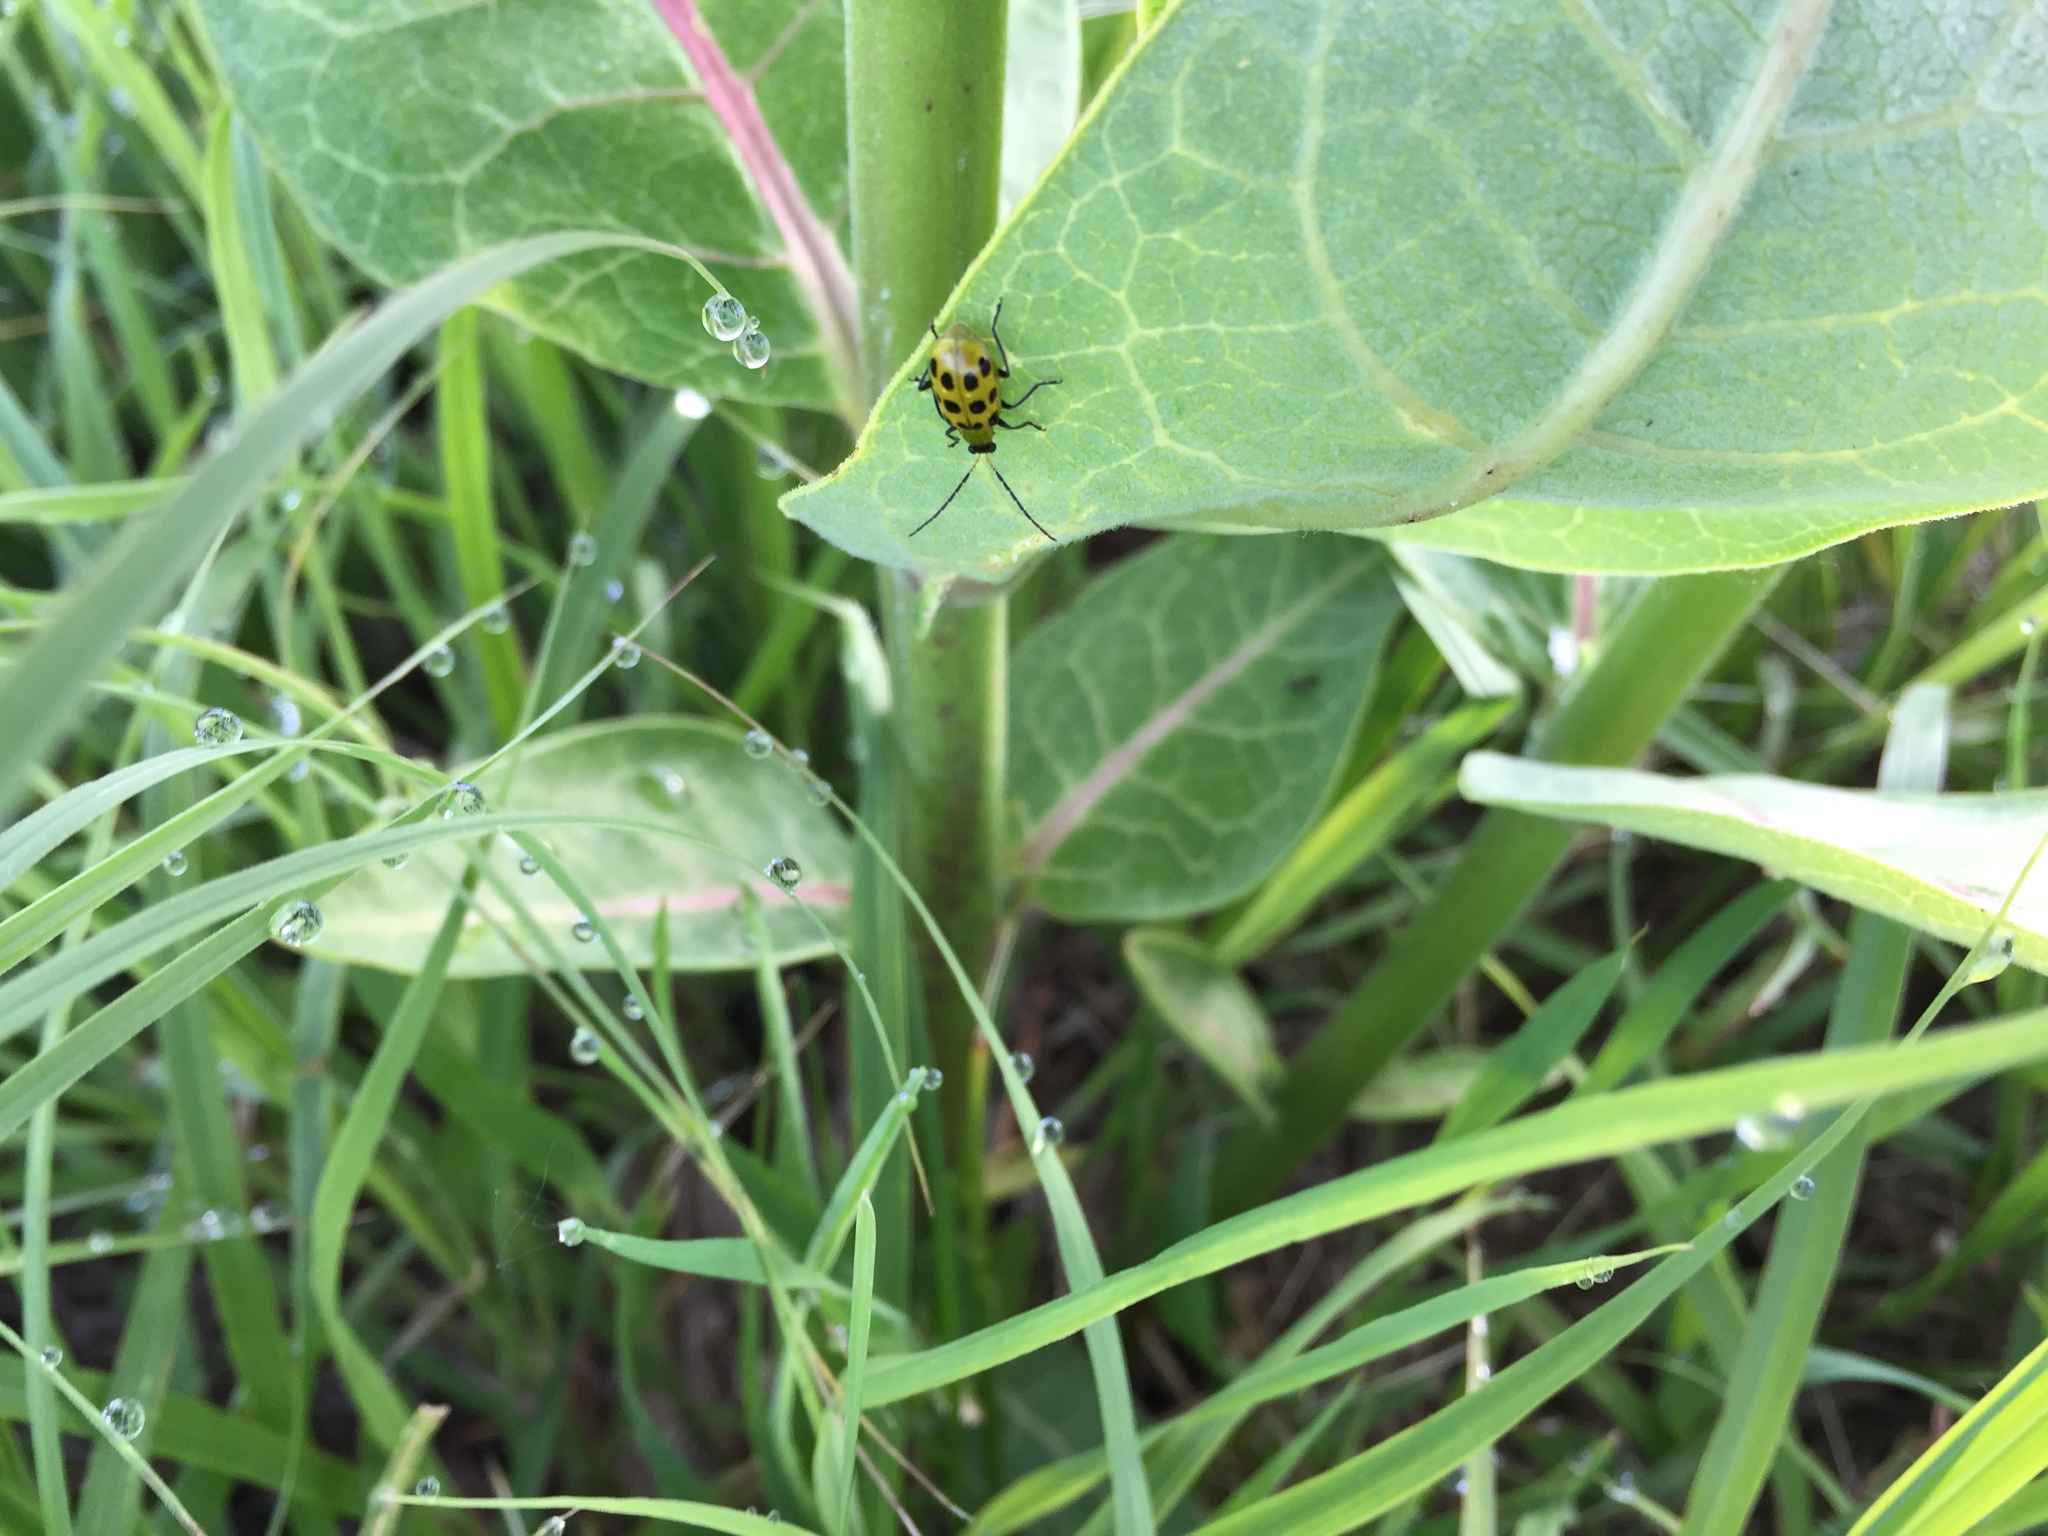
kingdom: Animalia
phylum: Arthropoda
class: Insecta
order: Coleoptera
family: Chrysomelidae
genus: Diabrotica
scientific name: Diabrotica undecimpunctata
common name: Spotted cucumber beetle
